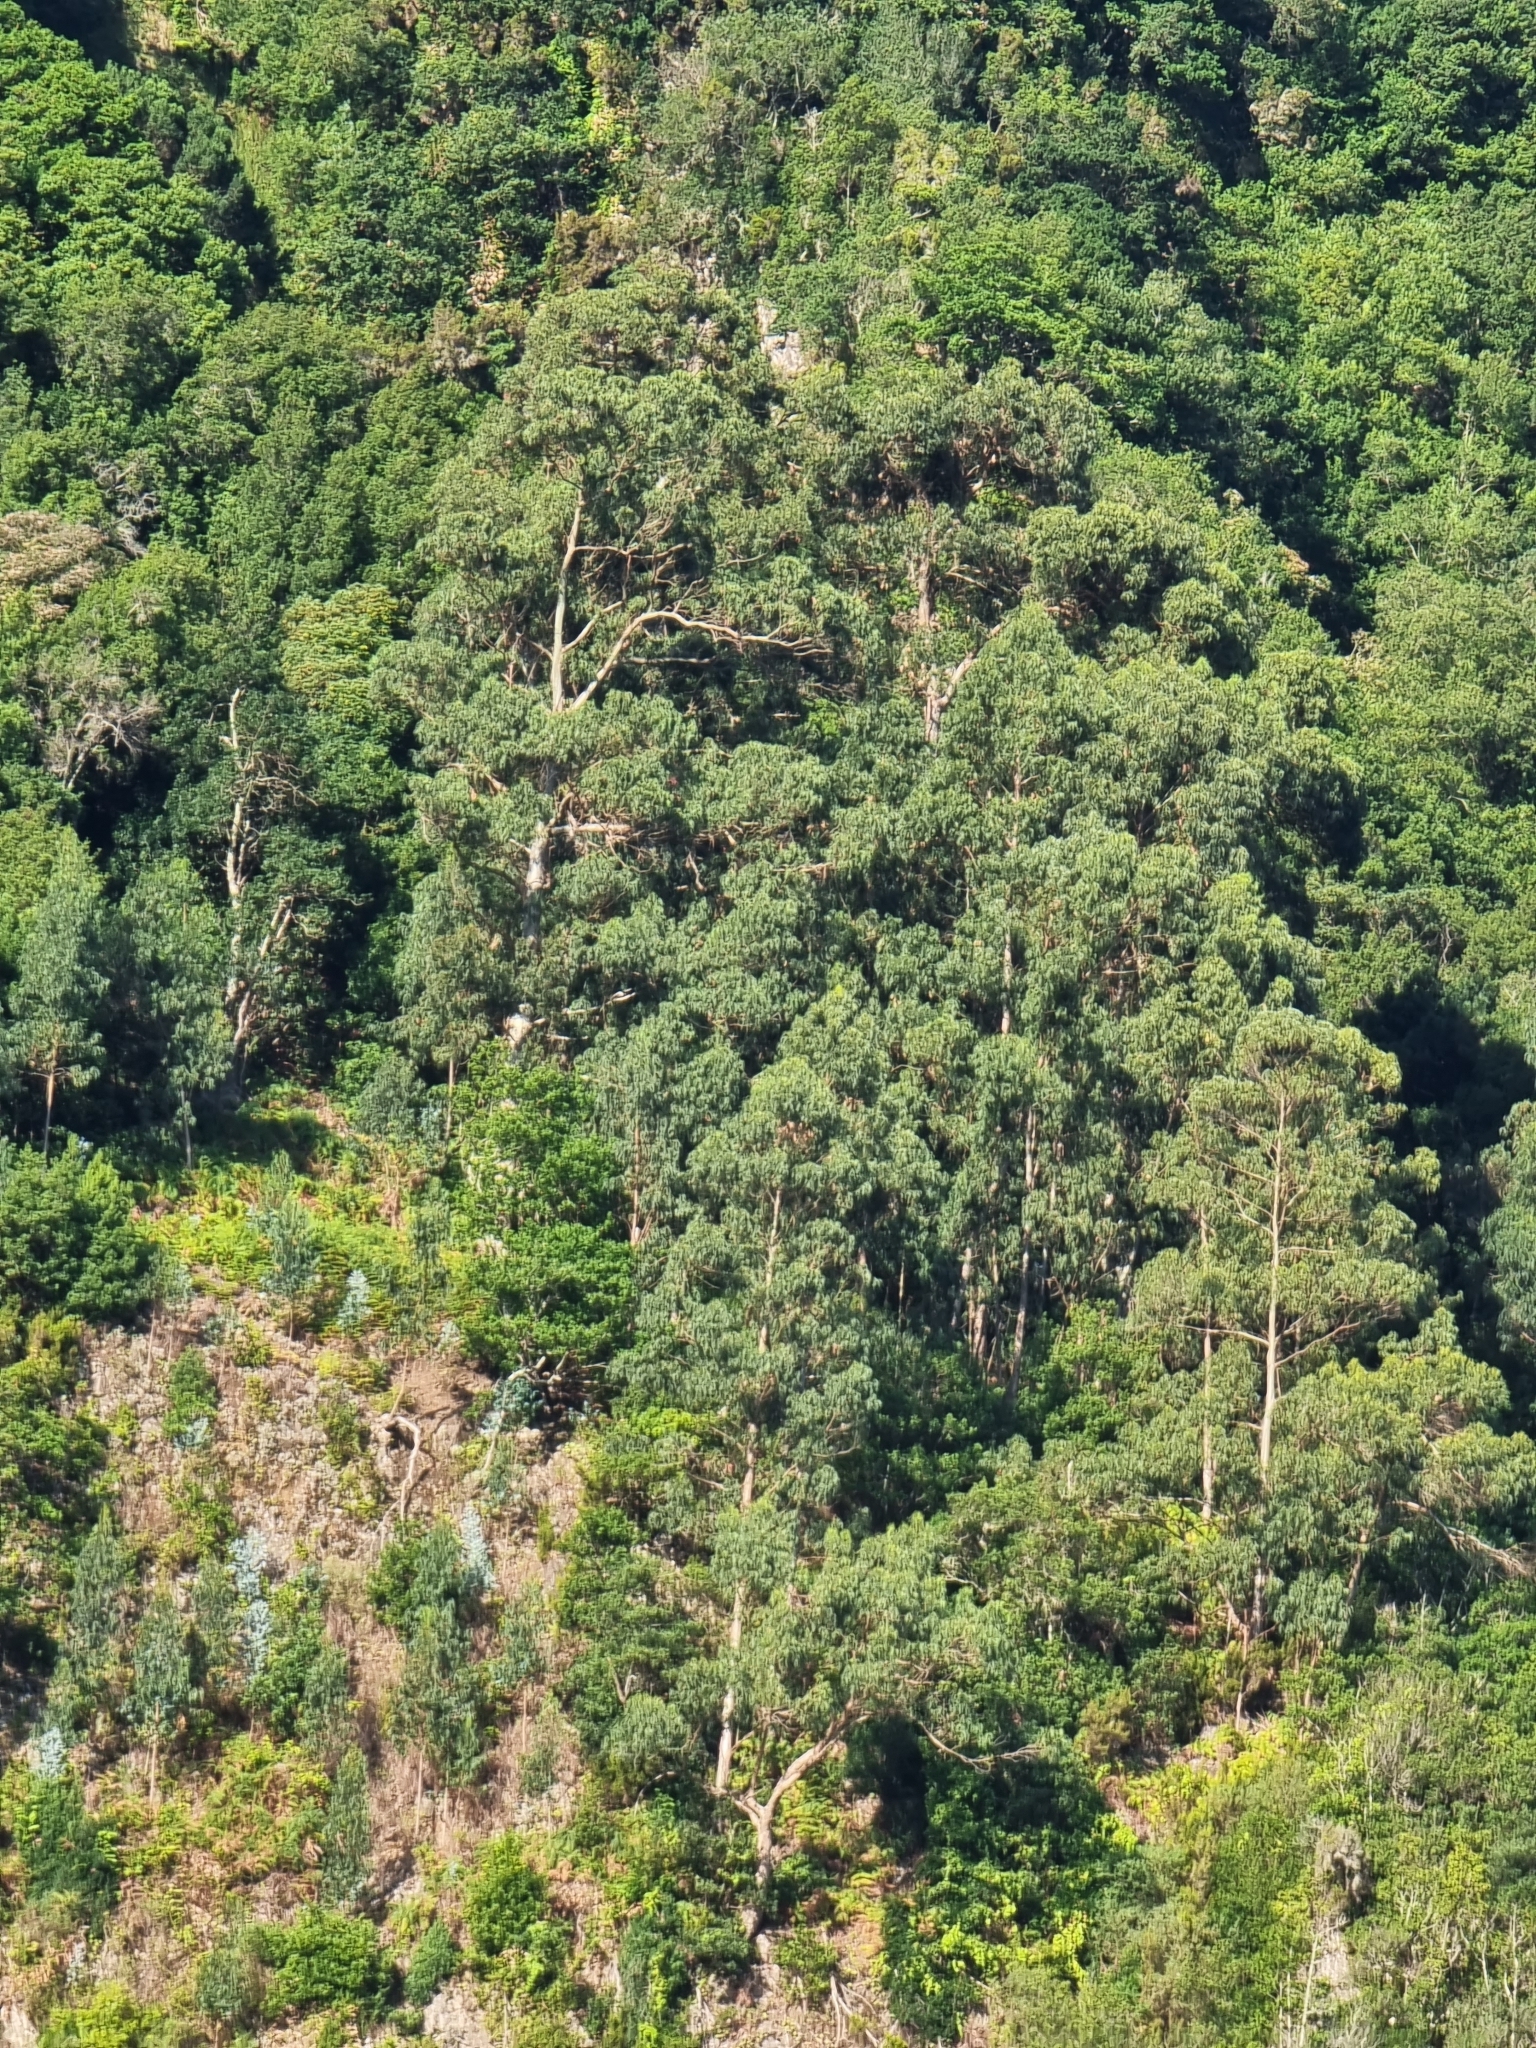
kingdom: Plantae
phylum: Tracheophyta
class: Magnoliopsida
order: Myrtales
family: Myrtaceae
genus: Eucalyptus
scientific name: Eucalyptus globulus
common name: Southern blue-gum
